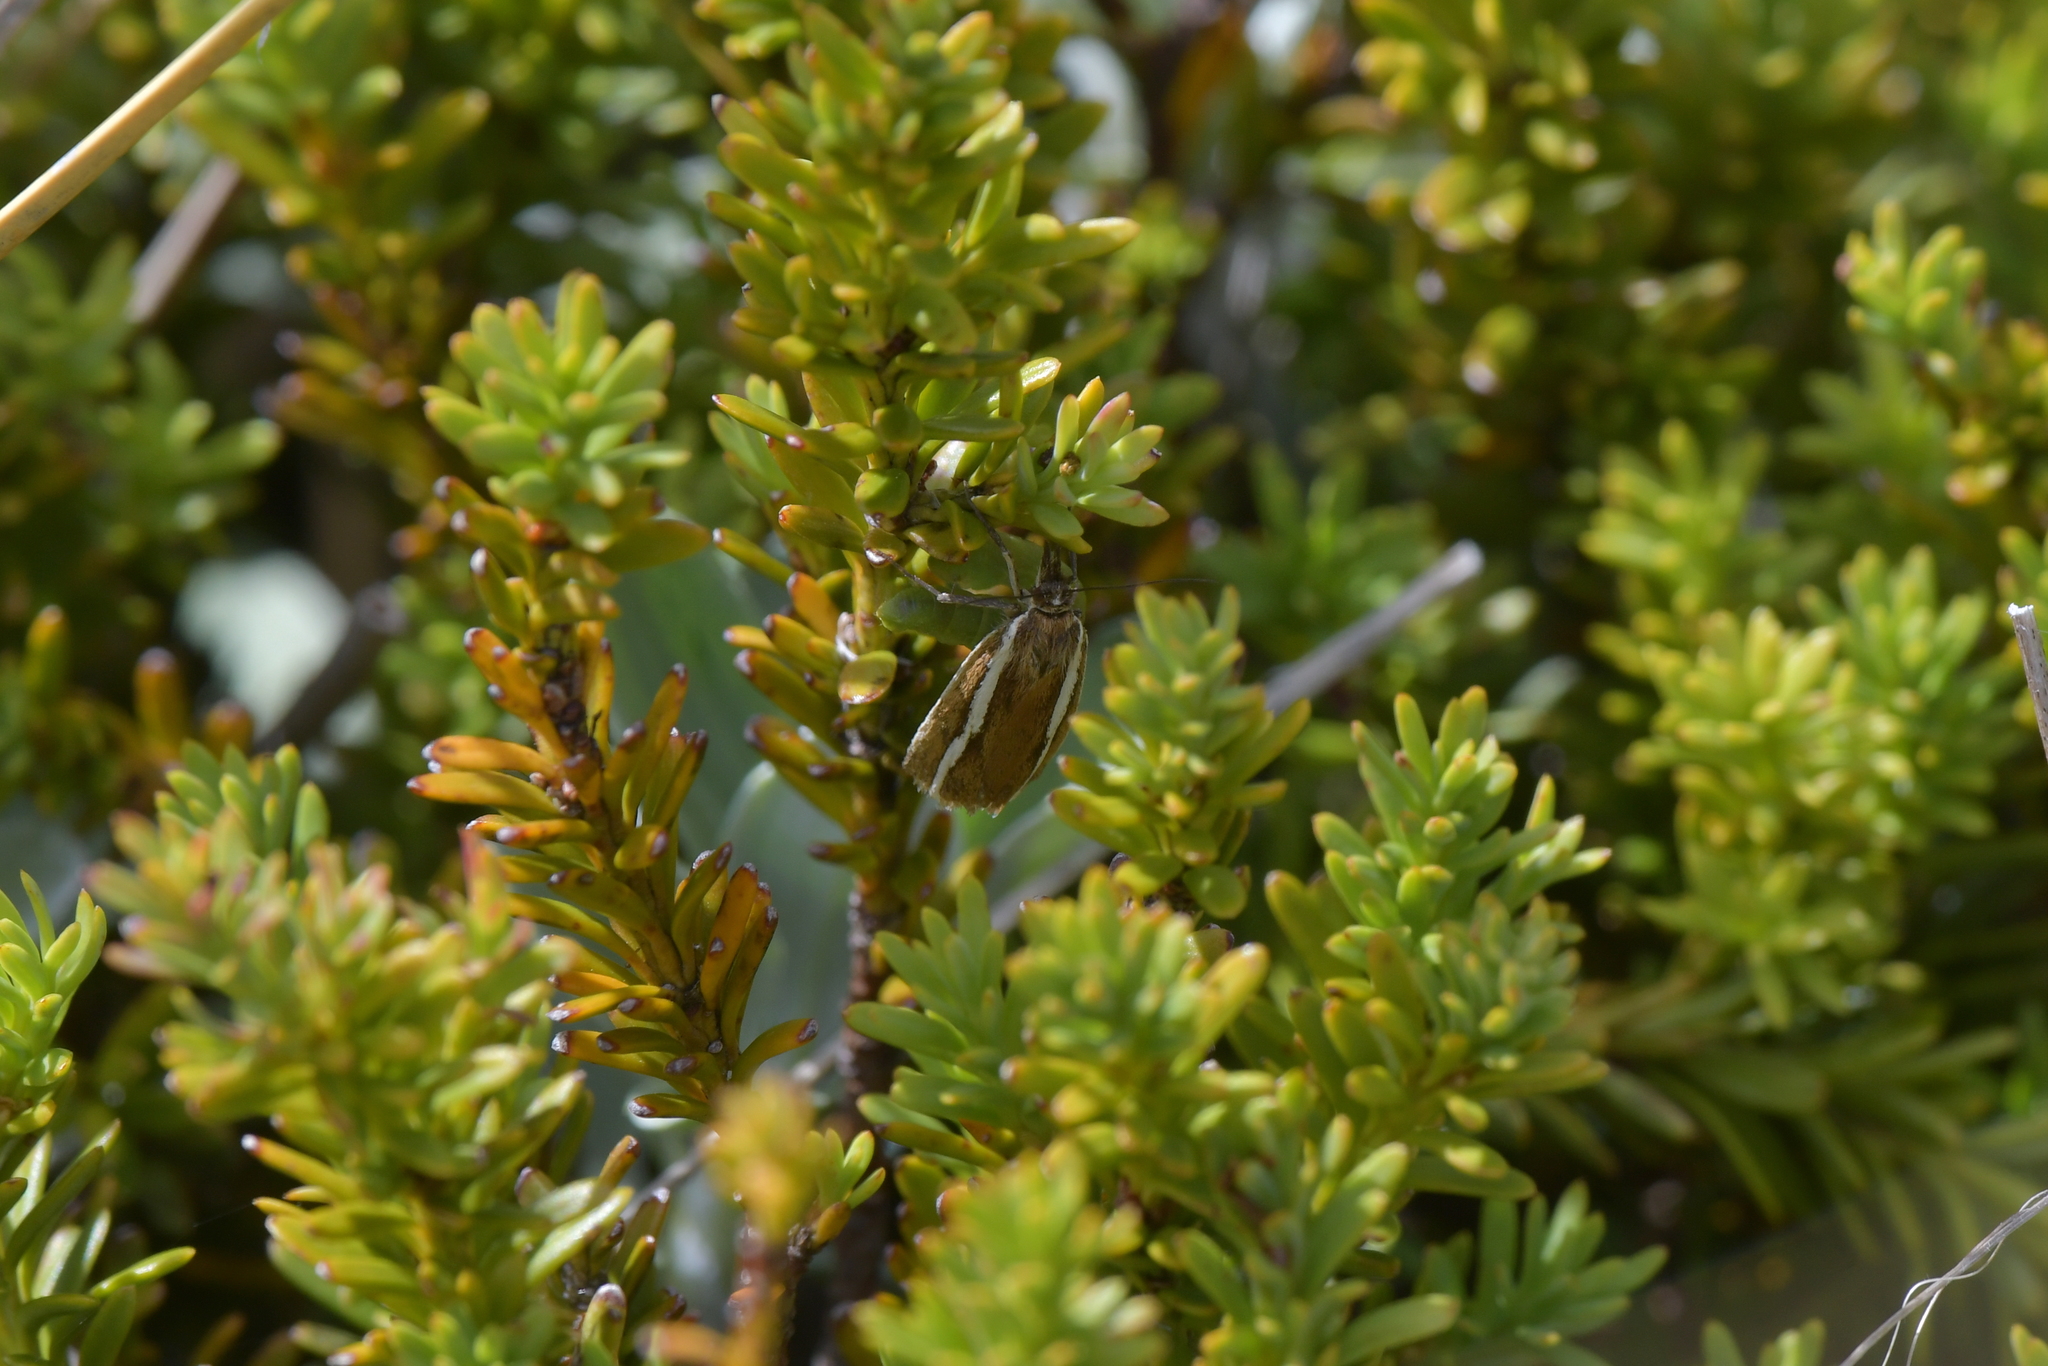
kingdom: Animalia
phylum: Arthropoda
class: Insecta
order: Lepidoptera
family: Crambidae
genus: Orocrambus
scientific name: Orocrambus catacaustus
